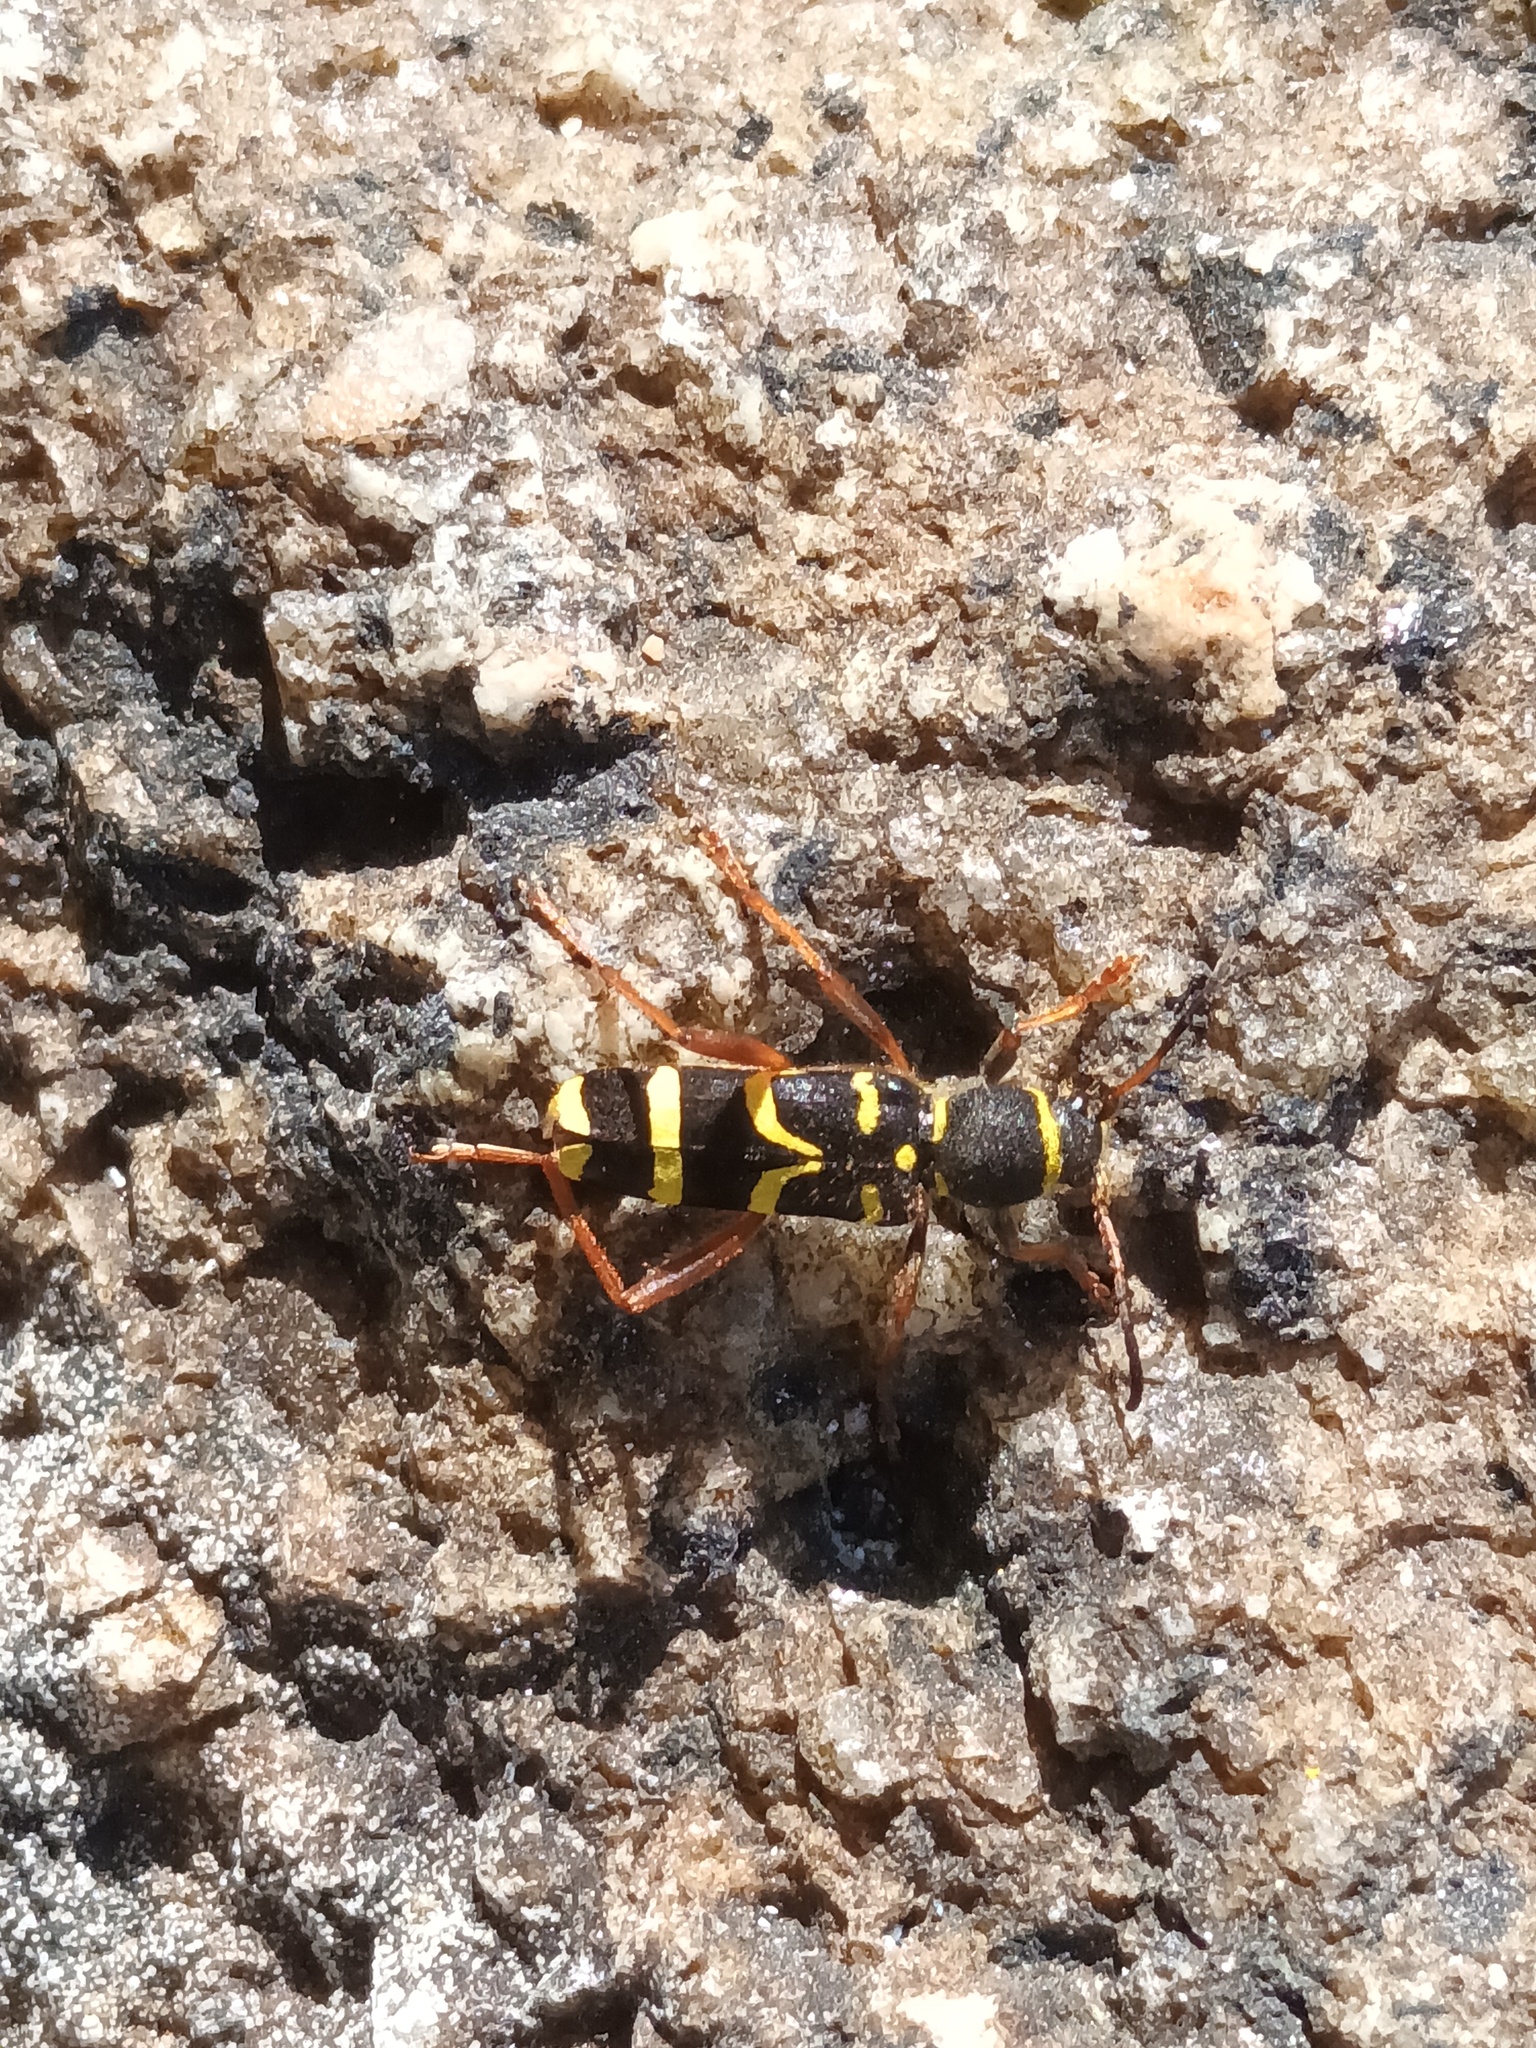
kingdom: Animalia
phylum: Arthropoda
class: Insecta
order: Coleoptera
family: Cerambycidae
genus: Clytus
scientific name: Clytus arietis
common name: Wasp beetle
